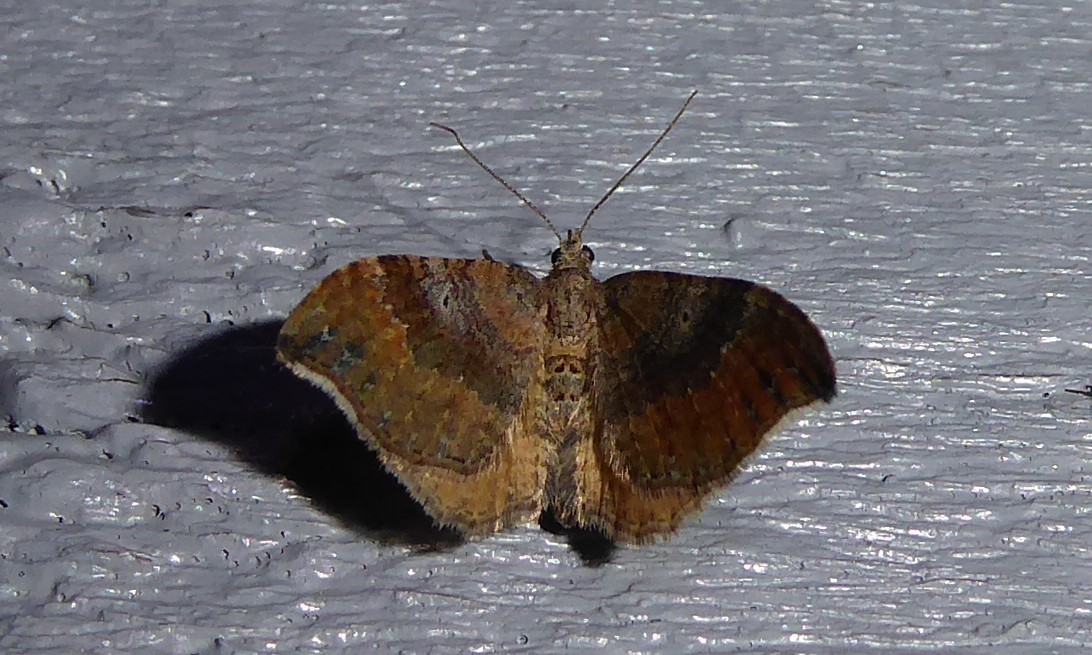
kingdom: Animalia
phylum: Arthropoda
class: Insecta
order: Lepidoptera
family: Geometridae
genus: Homodotis
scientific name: Homodotis megaspilata
